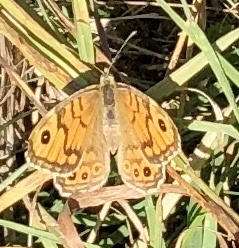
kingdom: Animalia
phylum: Arthropoda
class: Insecta
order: Lepidoptera
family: Nymphalidae
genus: Pararge
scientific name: Pararge Lasiommata megera
